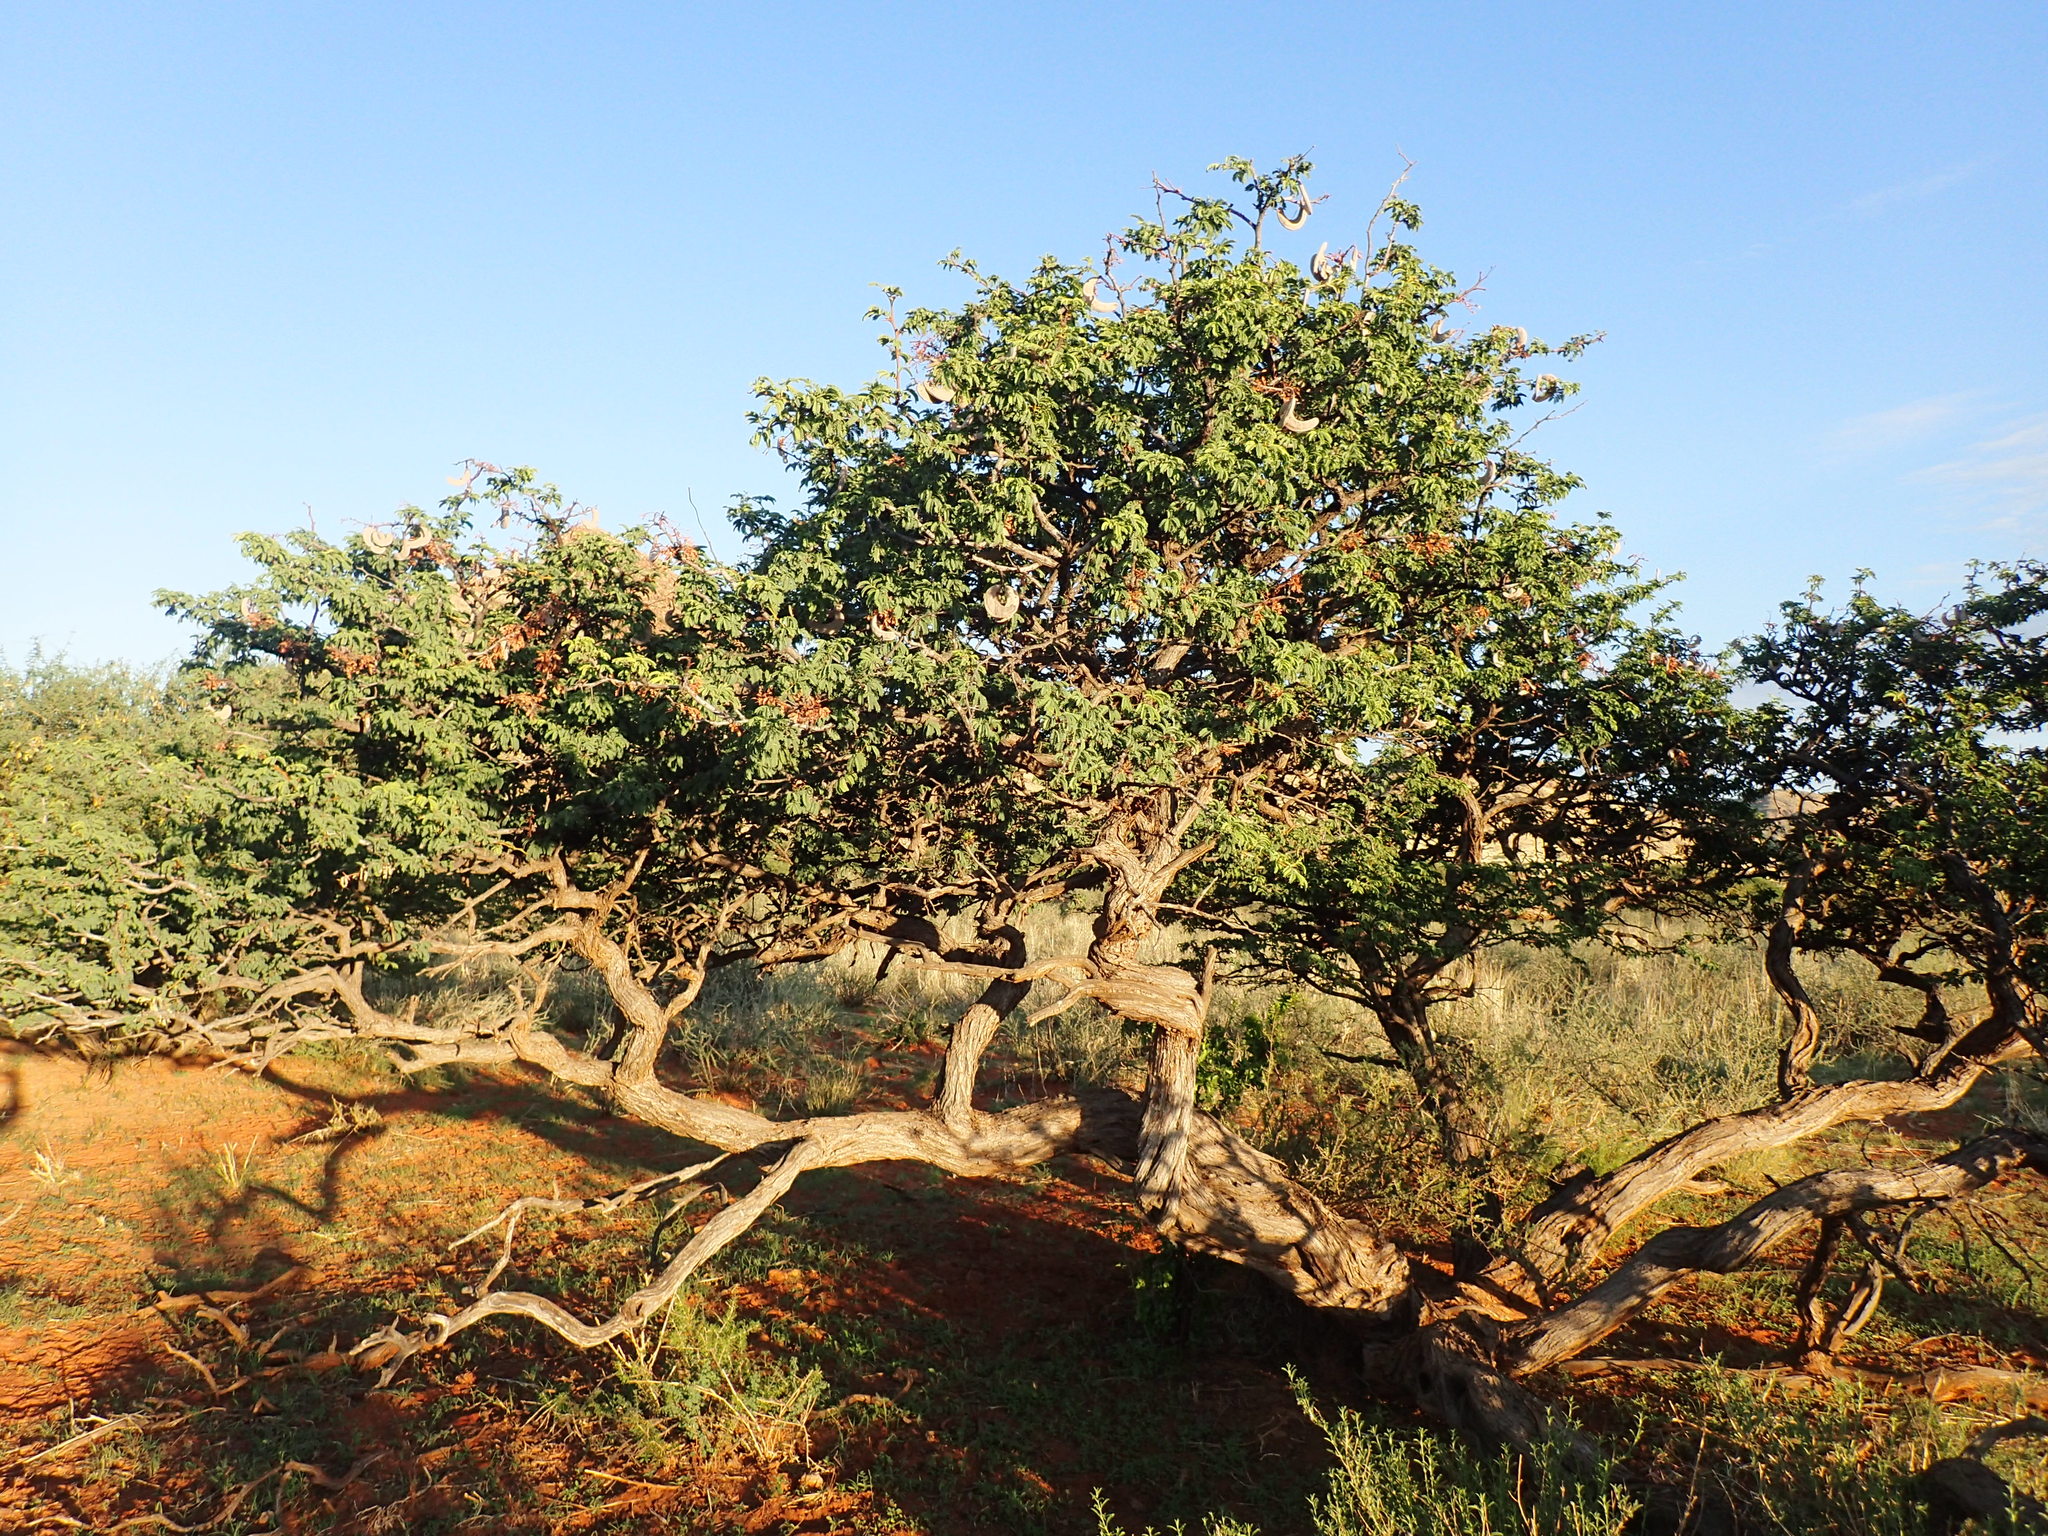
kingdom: Plantae
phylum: Tracheophyta
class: Magnoliopsida
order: Fabales
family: Fabaceae
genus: Vachellia
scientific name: Vachellia erioloba
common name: Camel thorn
